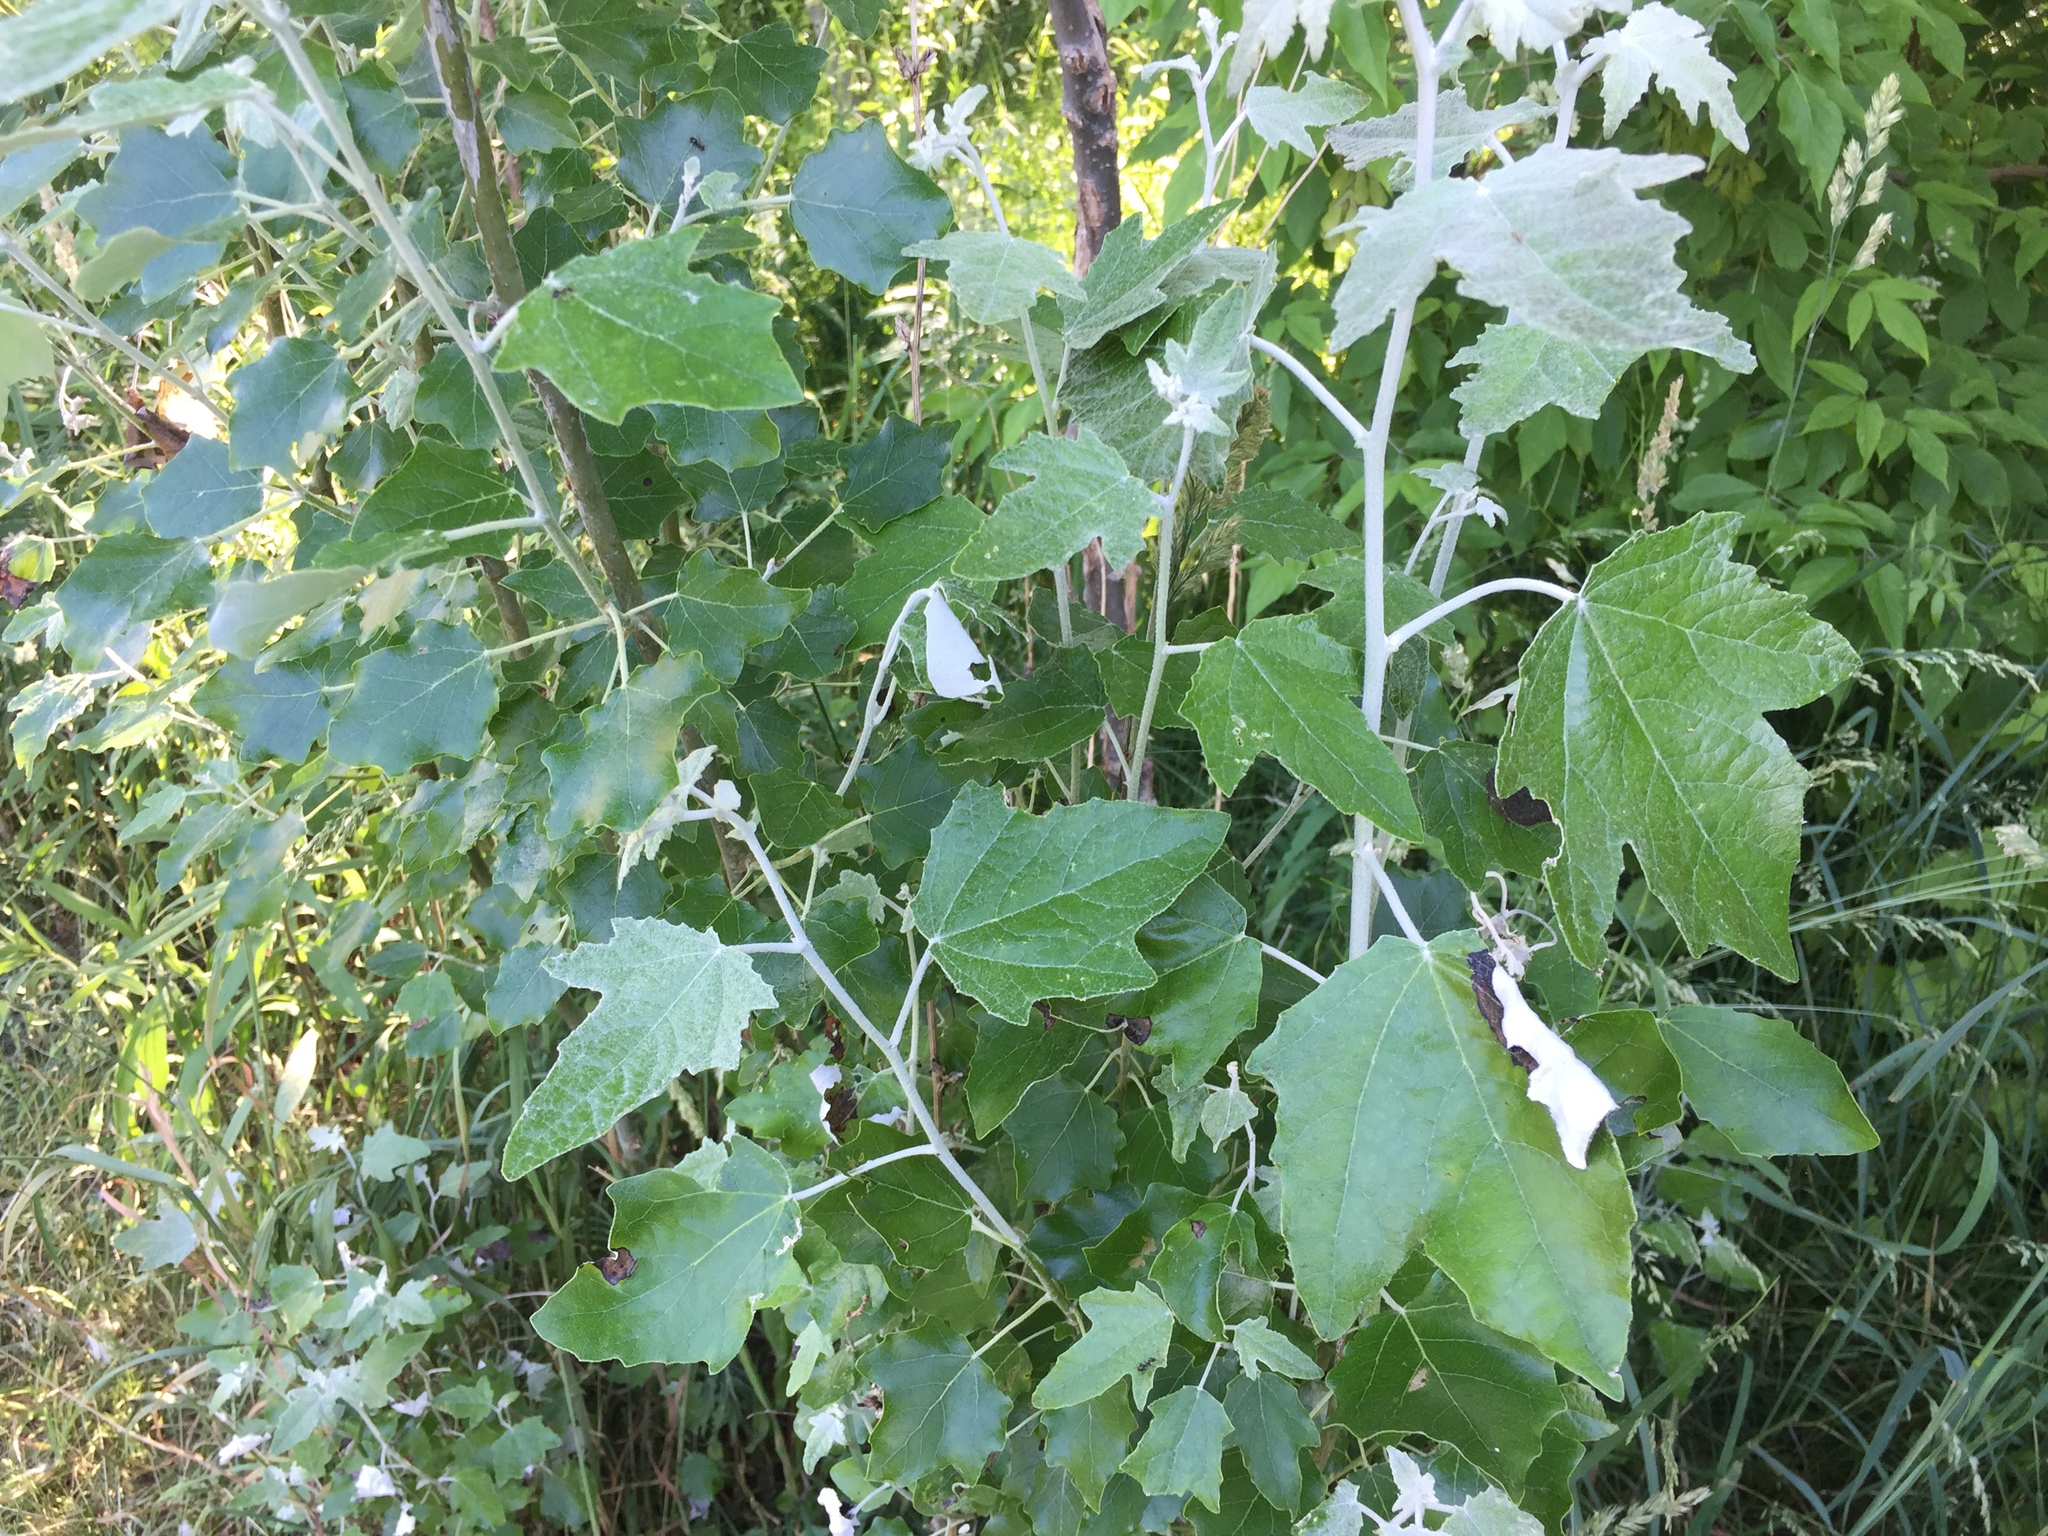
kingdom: Plantae
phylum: Tracheophyta
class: Magnoliopsida
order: Malpighiales
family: Salicaceae
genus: Populus
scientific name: Populus alba
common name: White poplar
